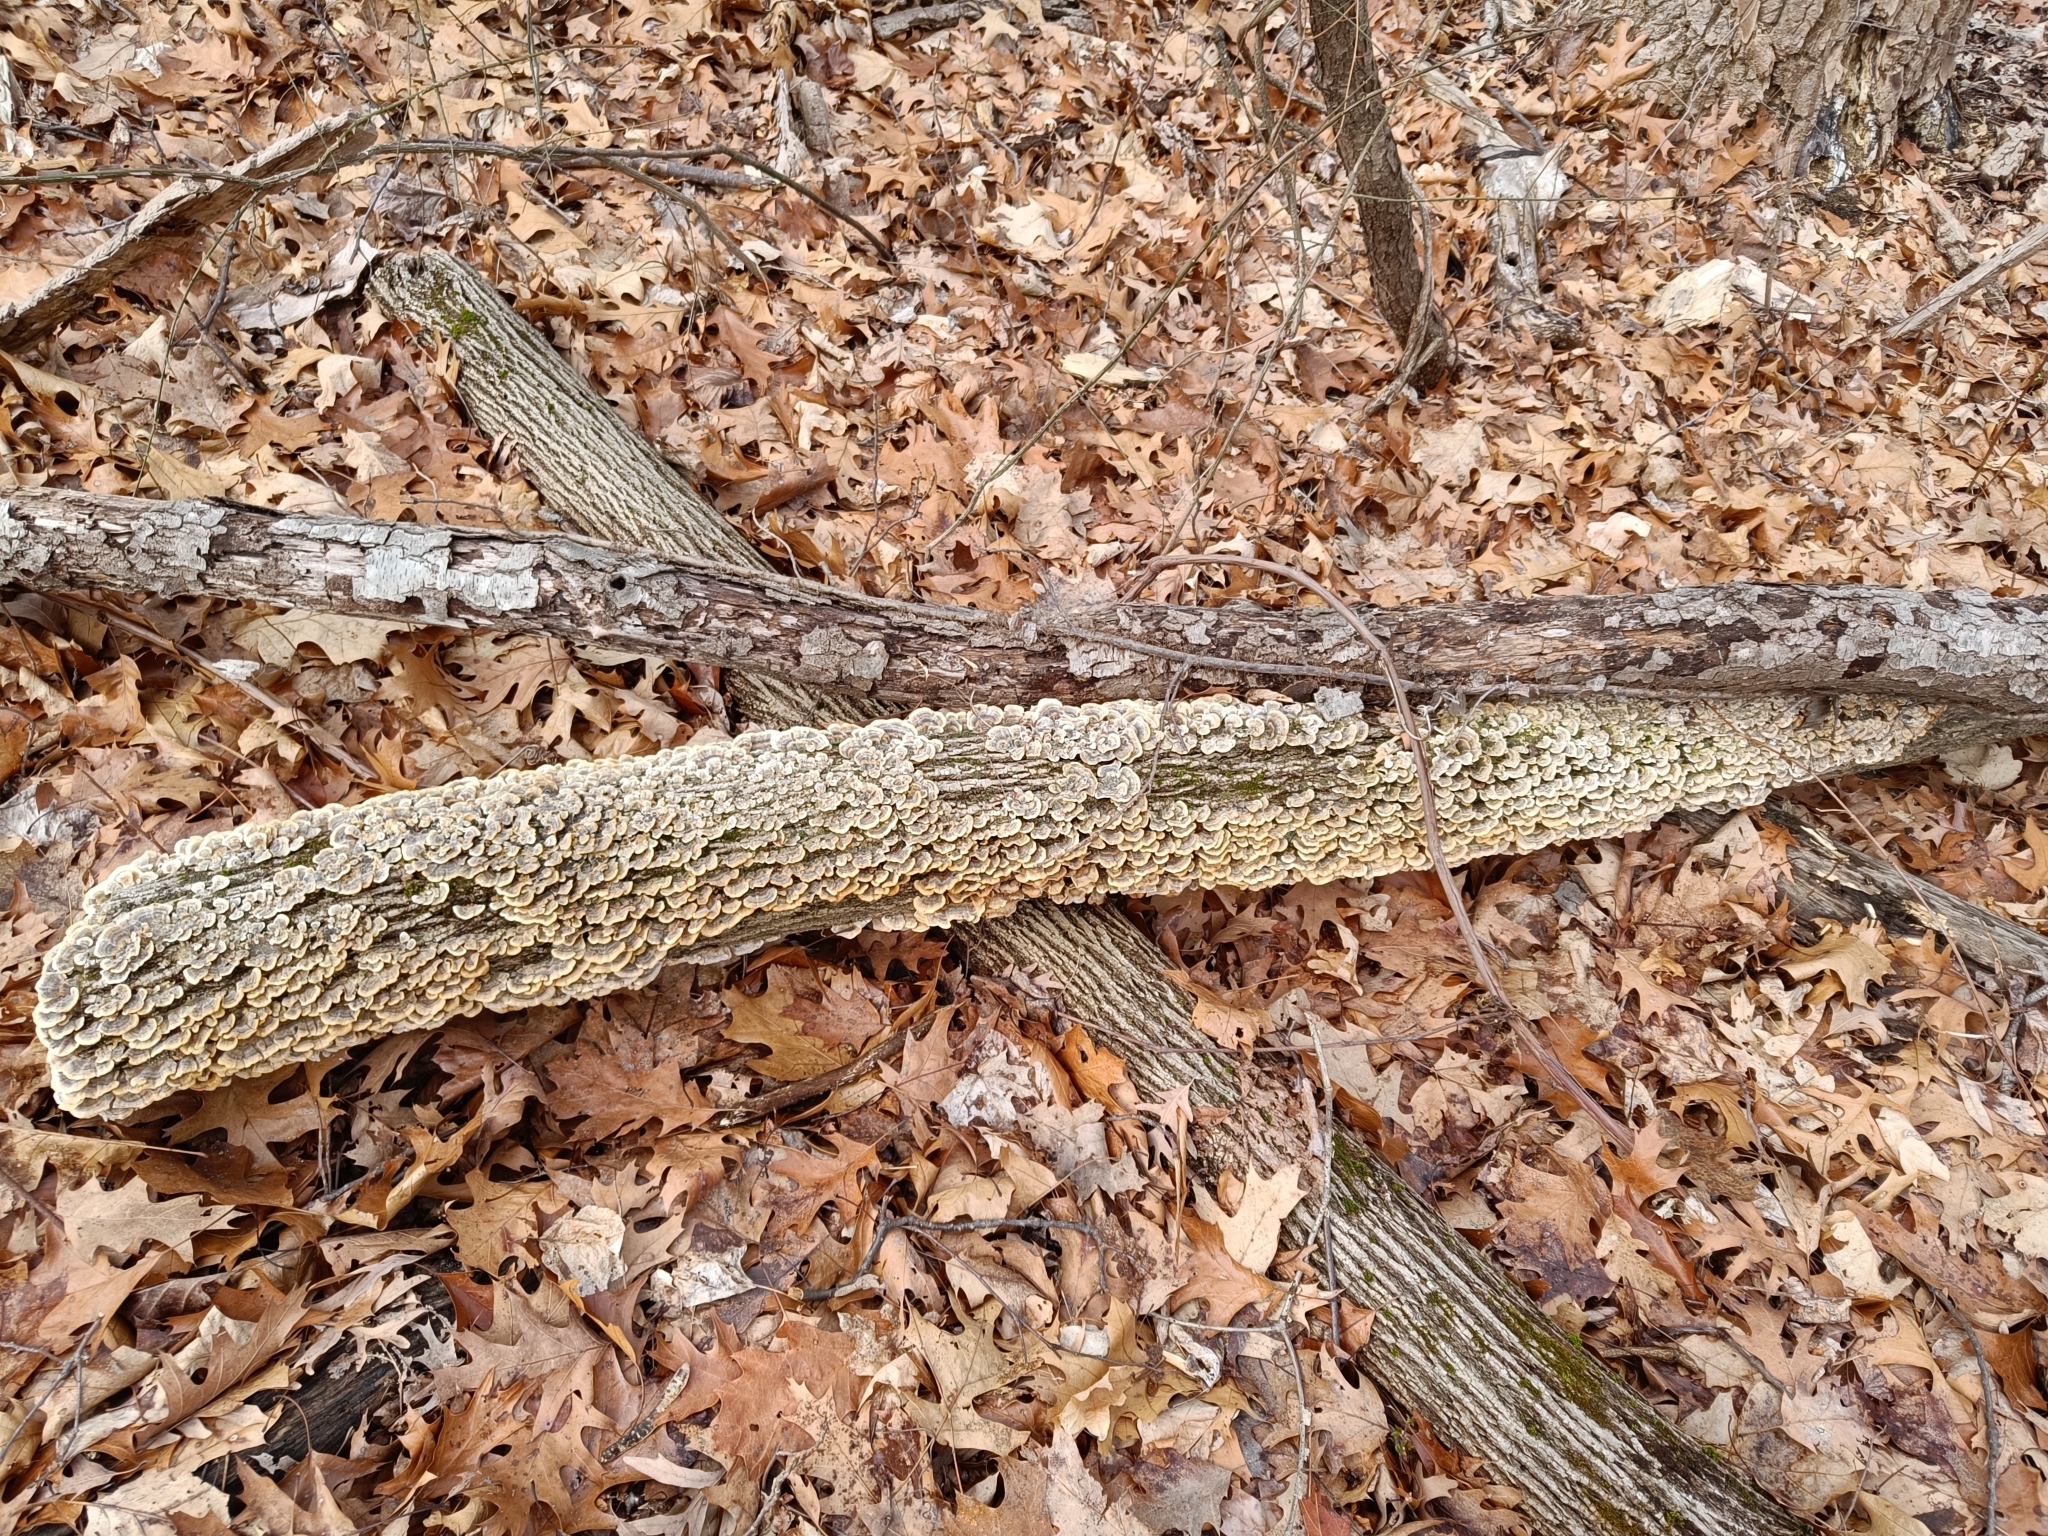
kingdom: Fungi
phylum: Basidiomycota
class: Agaricomycetes
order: Polyporales
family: Polyporaceae
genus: Trametes
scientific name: Trametes versicolor
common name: Turkeytail
